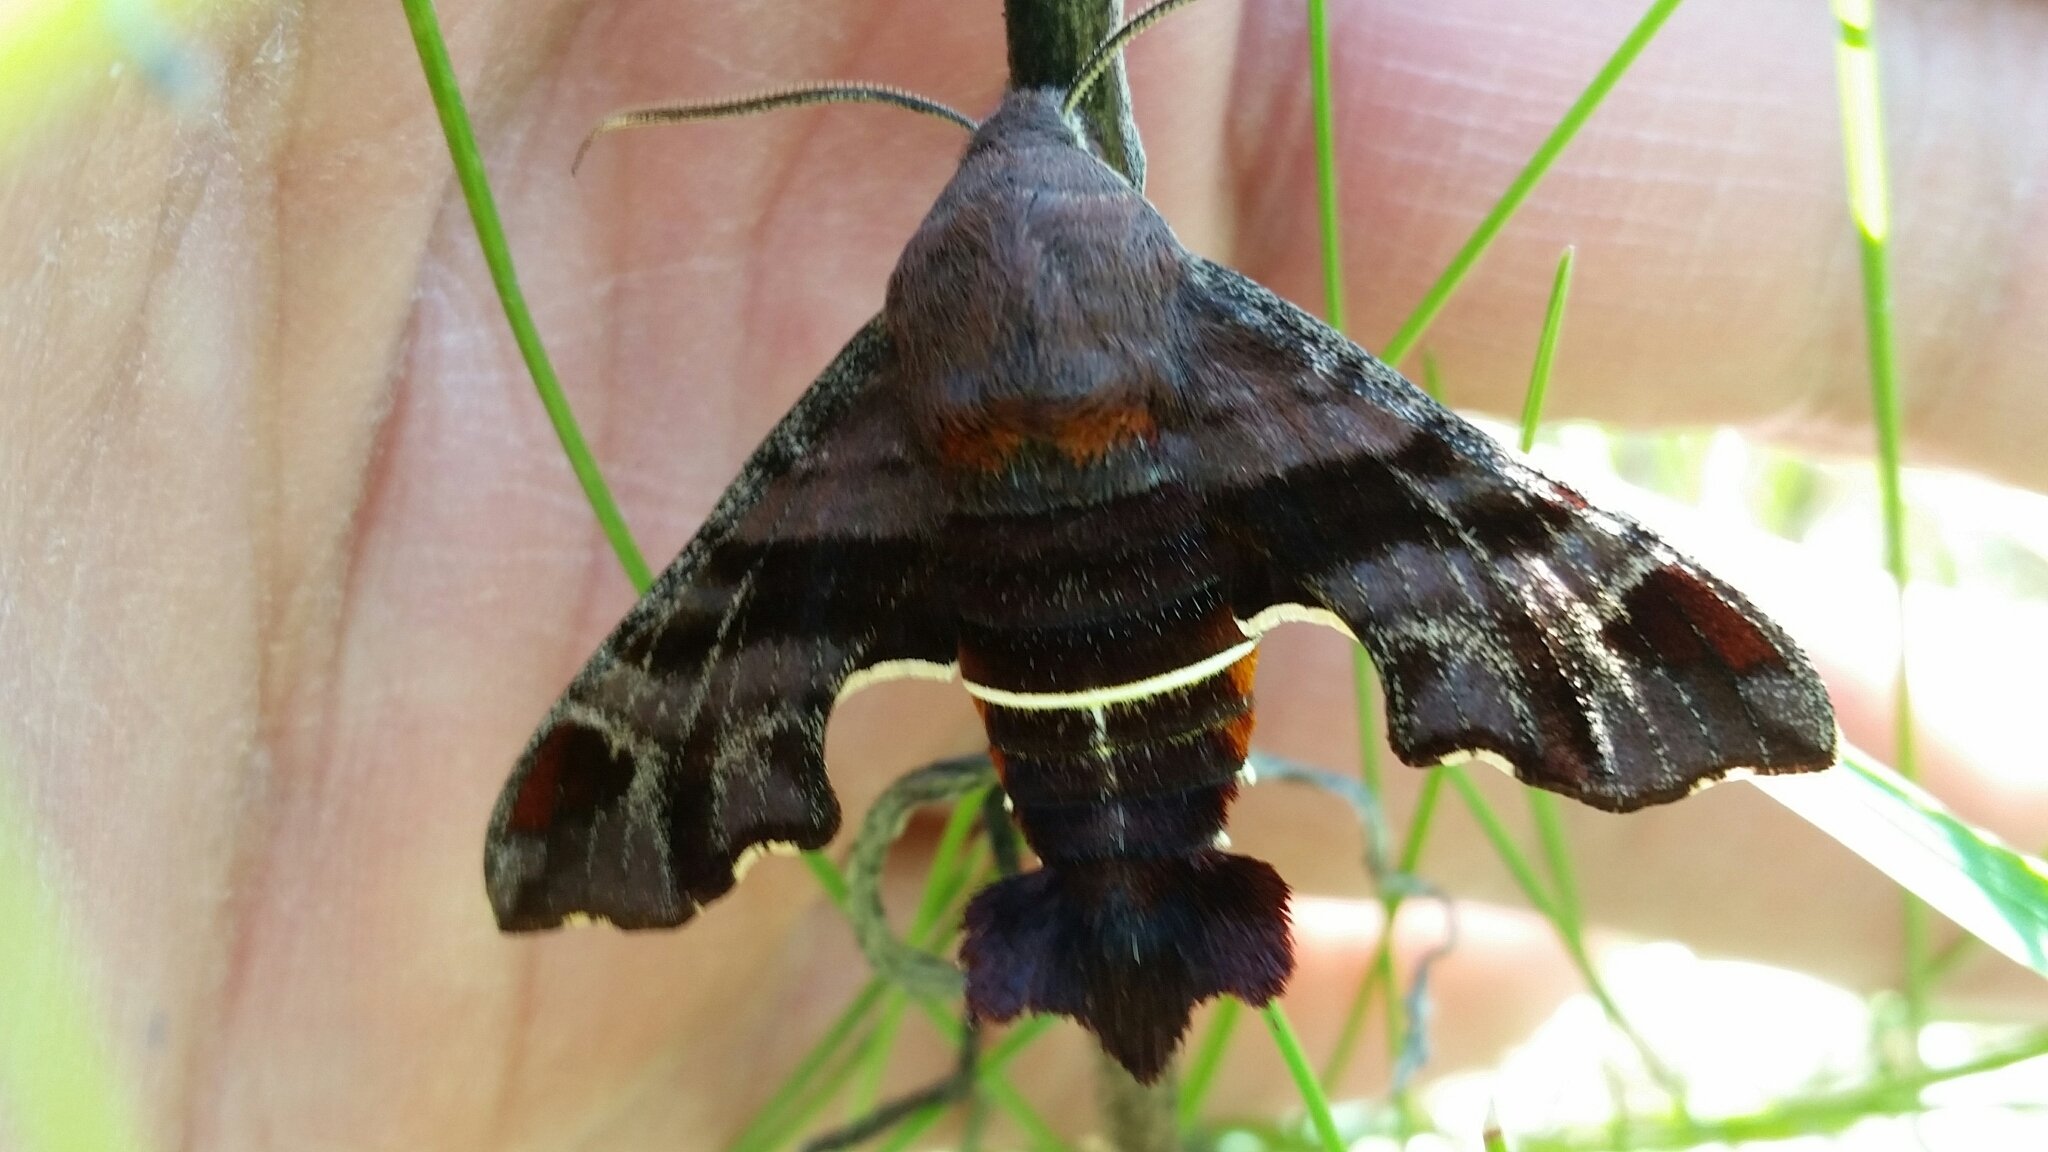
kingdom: Animalia
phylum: Arthropoda
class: Insecta
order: Lepidoptera
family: Sphingidae
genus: Amphion
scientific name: Amphion floridensis
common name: Nessus sphinx
